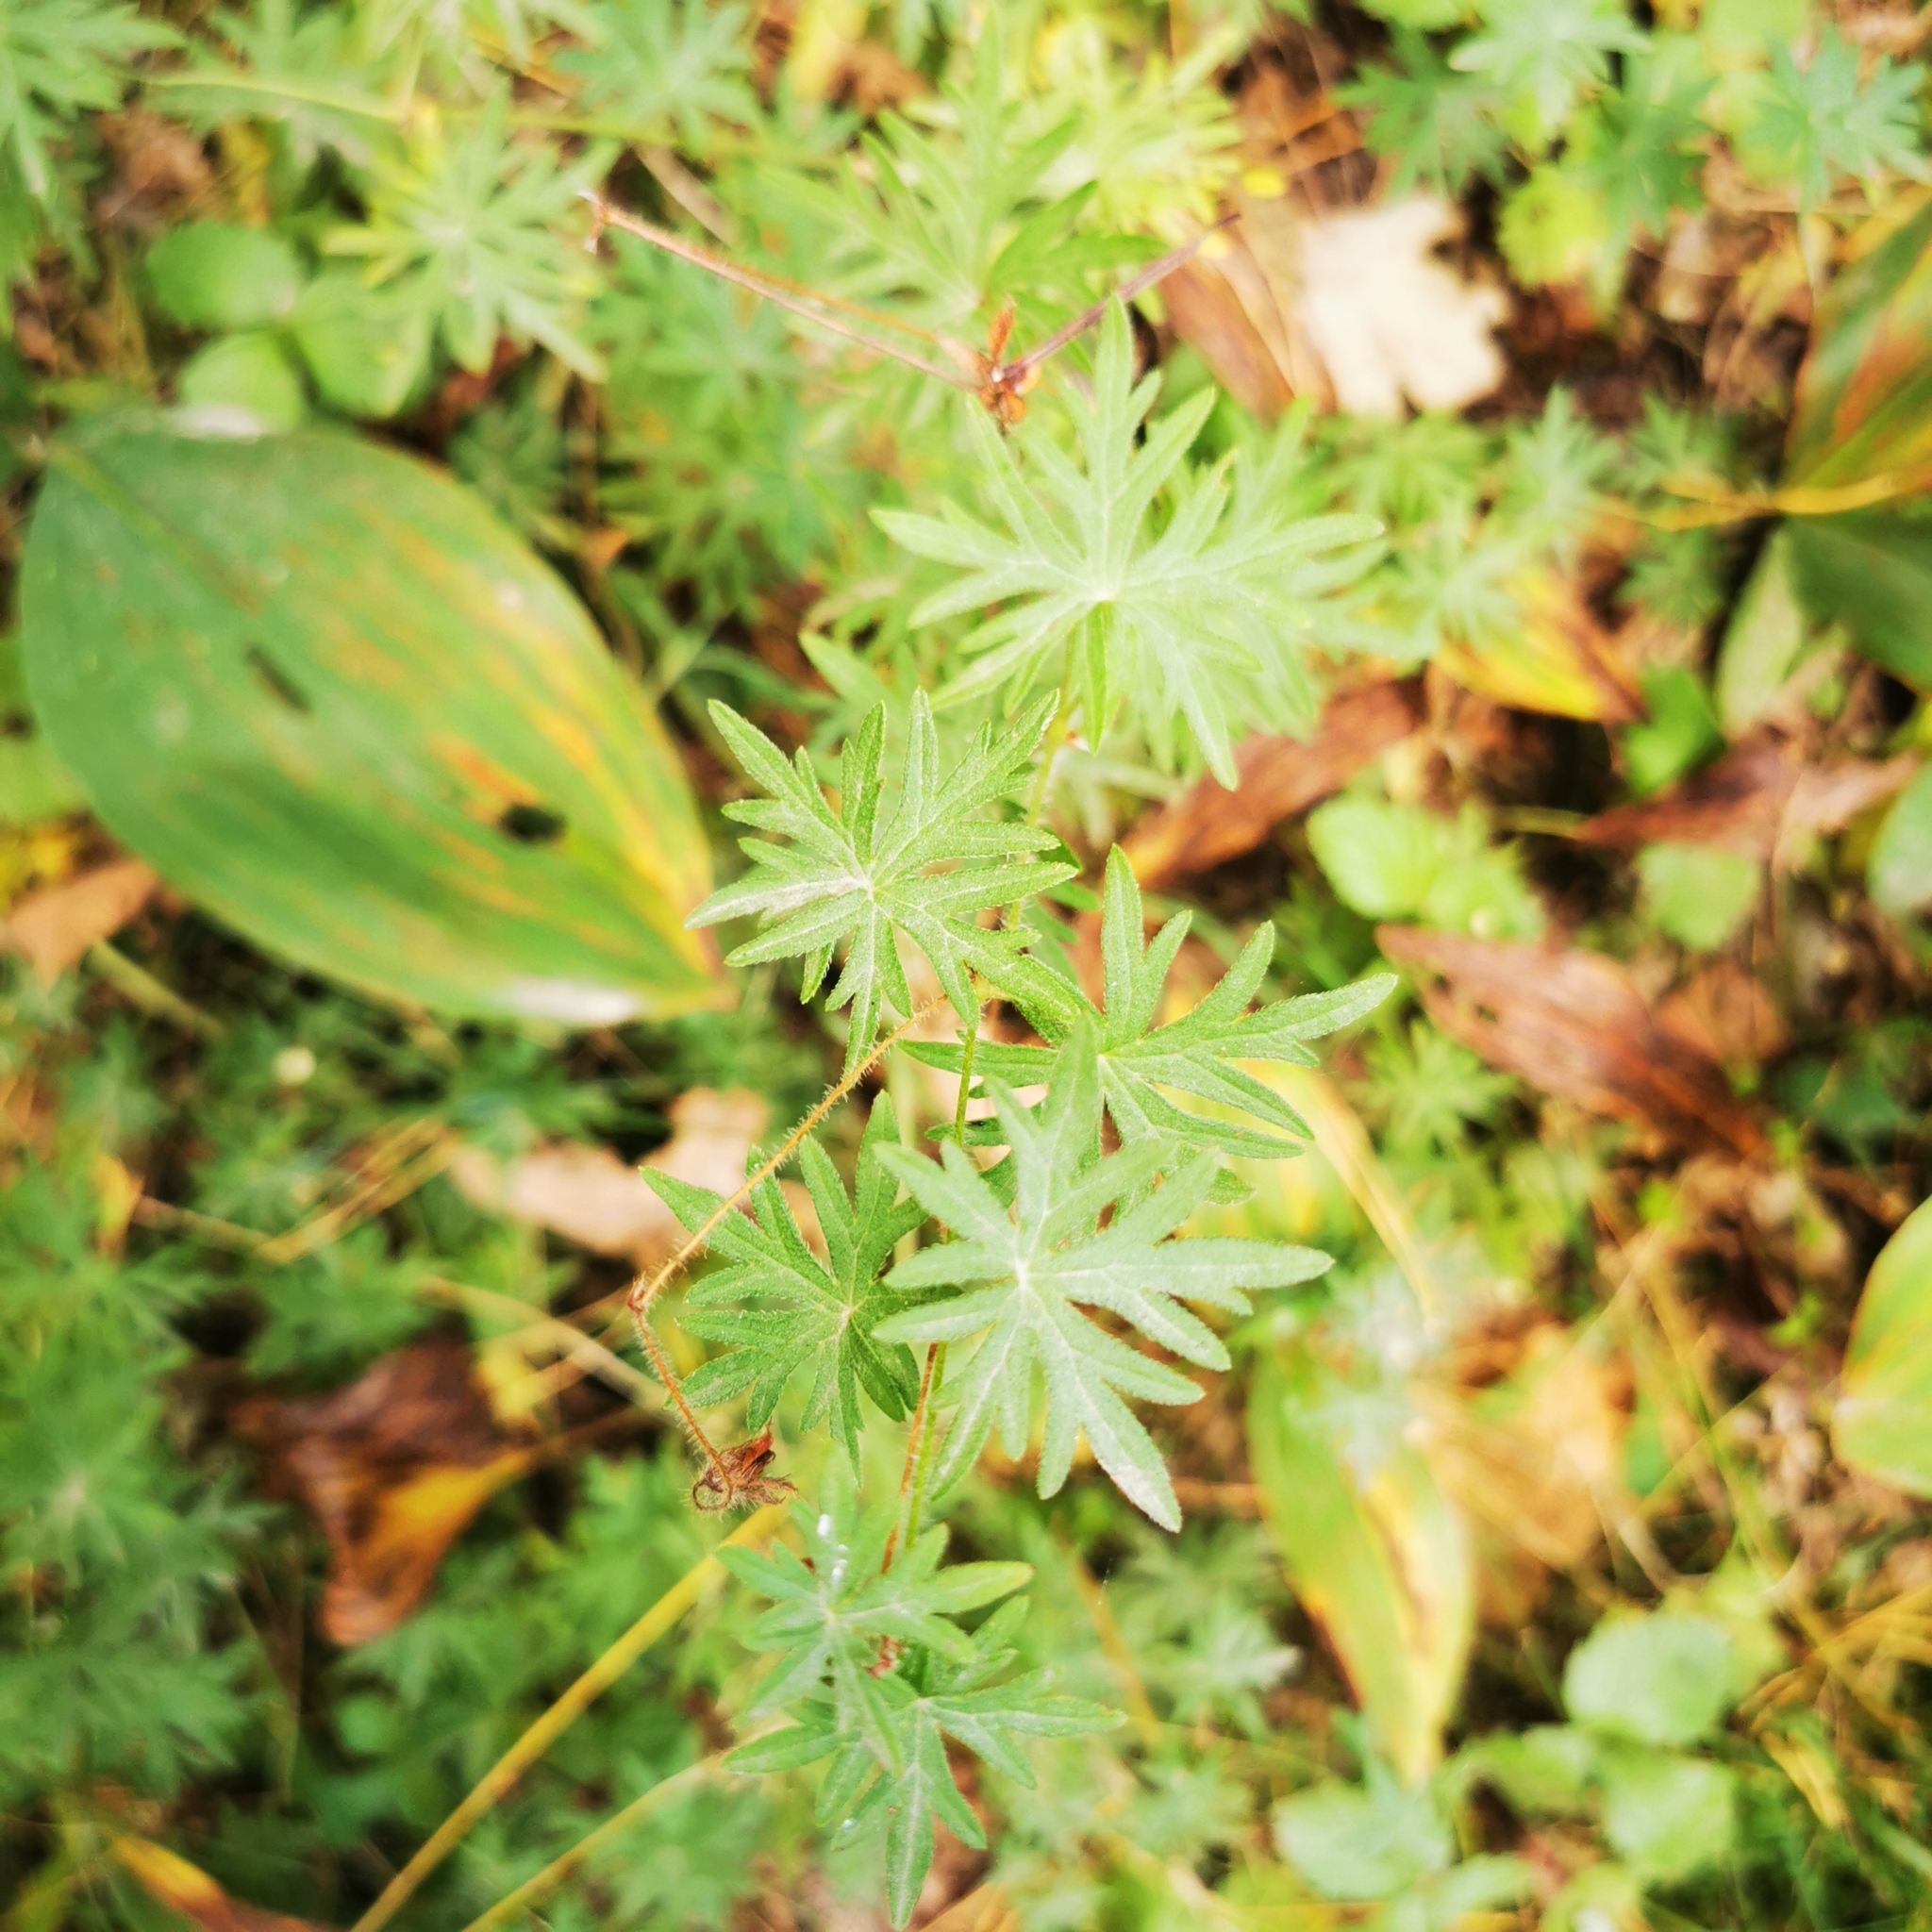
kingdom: Plantae
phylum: Tracheophyta
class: Magnoliopsida
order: Geraniales
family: Geraniaceae
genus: Geranium
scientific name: Geranium sanguineum
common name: Bloody crane's-bill
